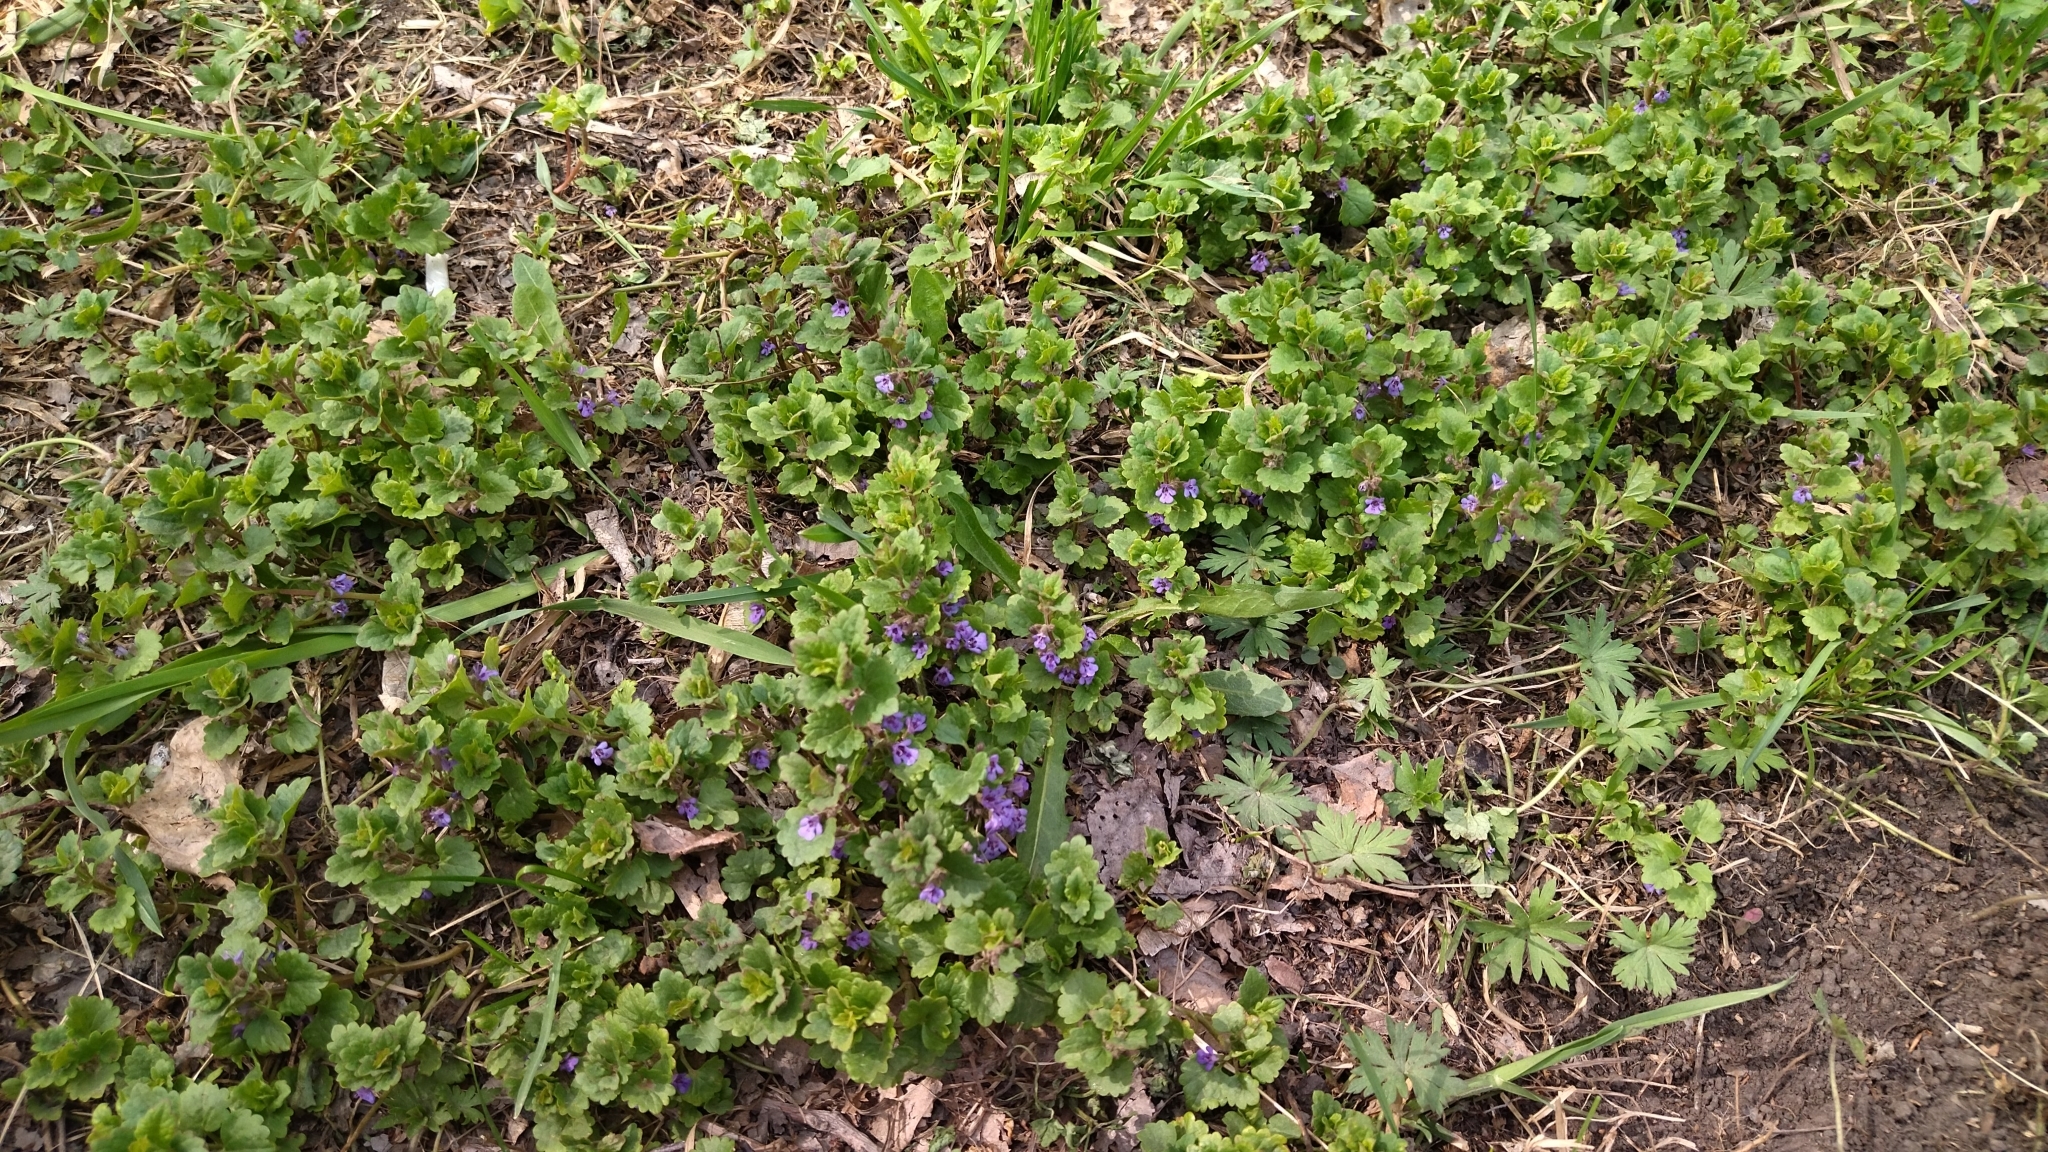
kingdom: Plantae
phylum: Tracheophyta
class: Magnoliopsida
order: Lamiales
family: Lamiaceae
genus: Glechoma
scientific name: Glechoma hederacea
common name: Ground ivy
